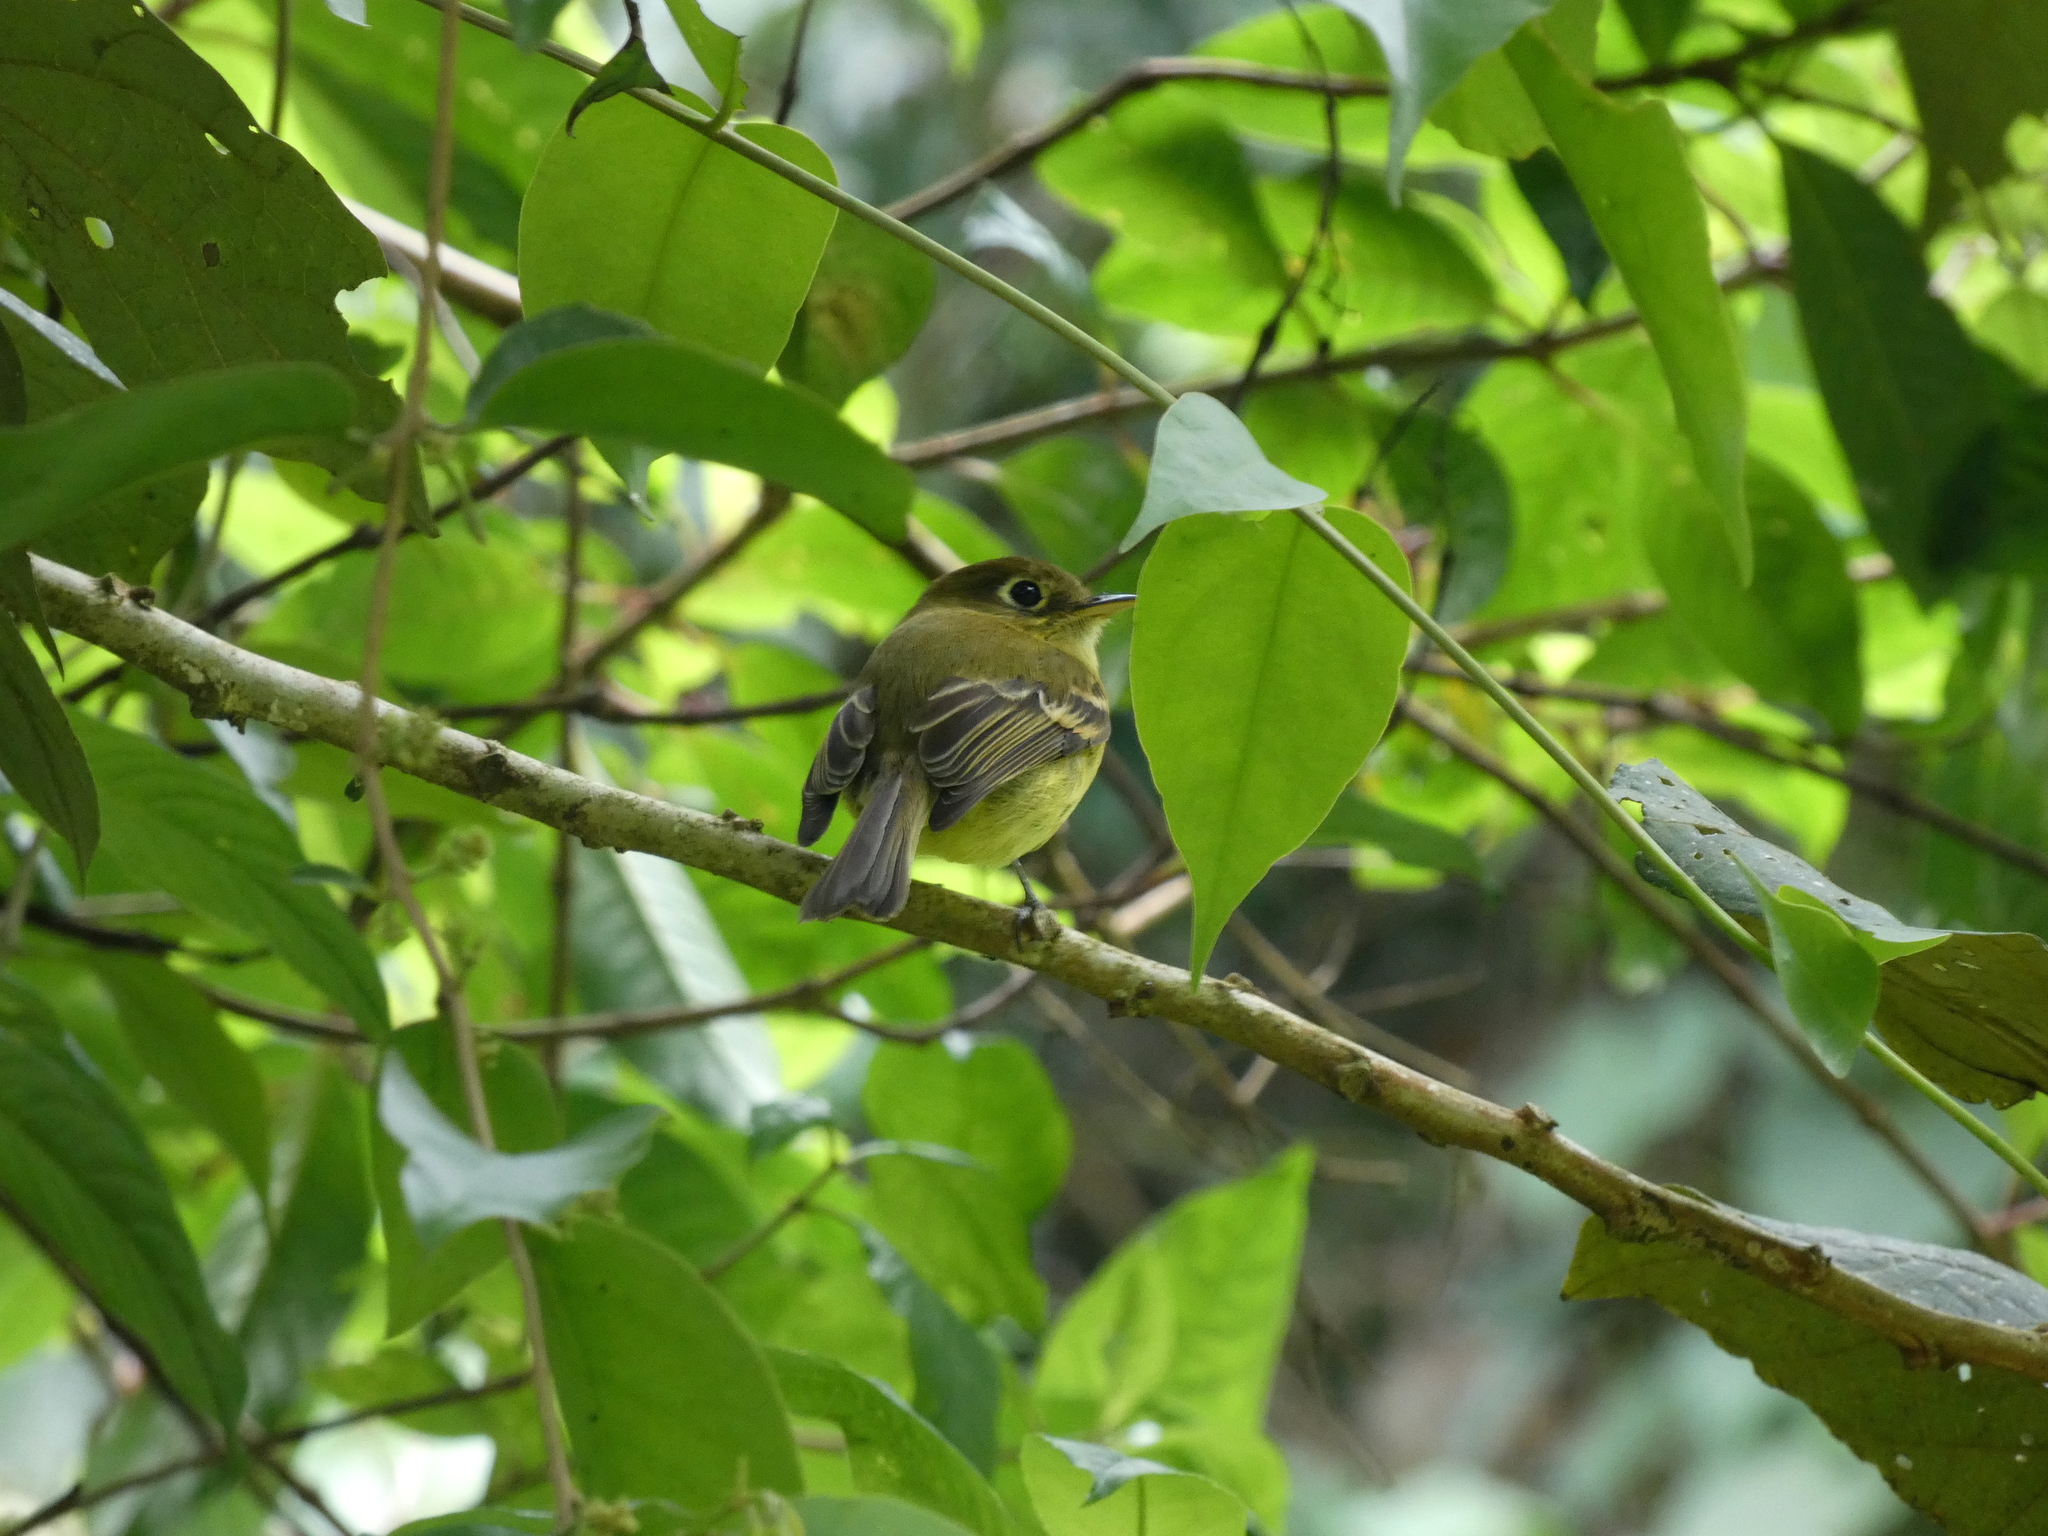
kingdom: Animalia
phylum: Chordata
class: Aves
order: Passeriformes
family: Tyrannidae
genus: Empidonax
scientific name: Empidonax flavescens
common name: Yellowish flycatcher
